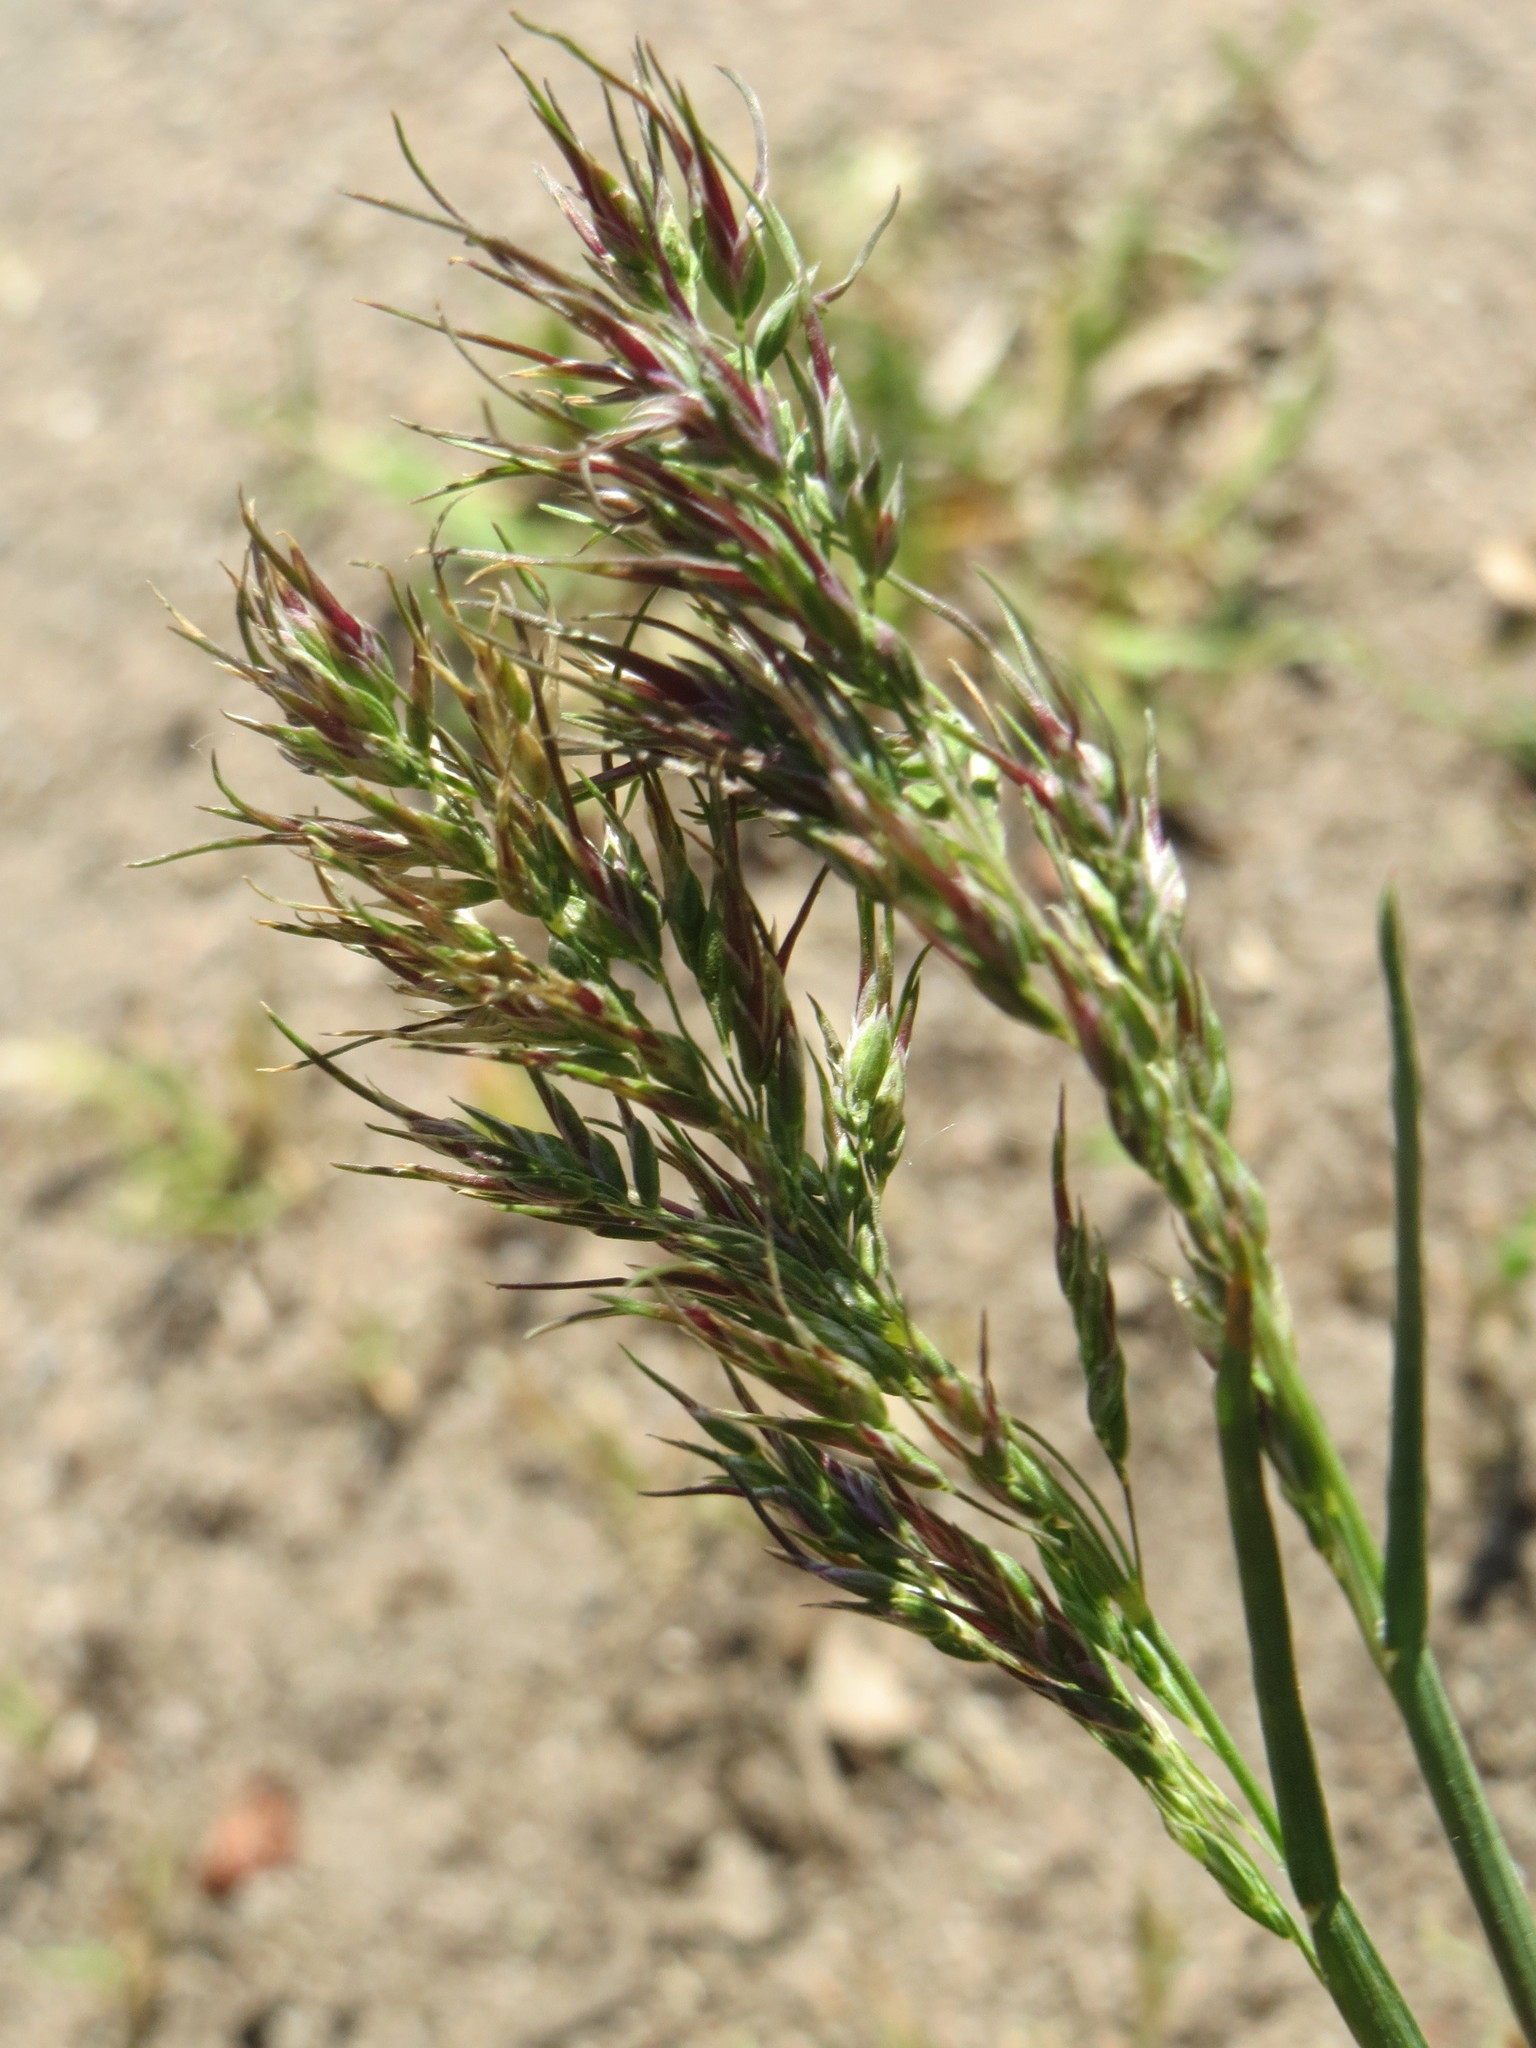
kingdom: Plantae
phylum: Tracheophyta
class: Liliopsida
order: Poales
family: Poaceae
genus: Poa
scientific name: Poa bulbosa
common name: Bulbous bluegrass
